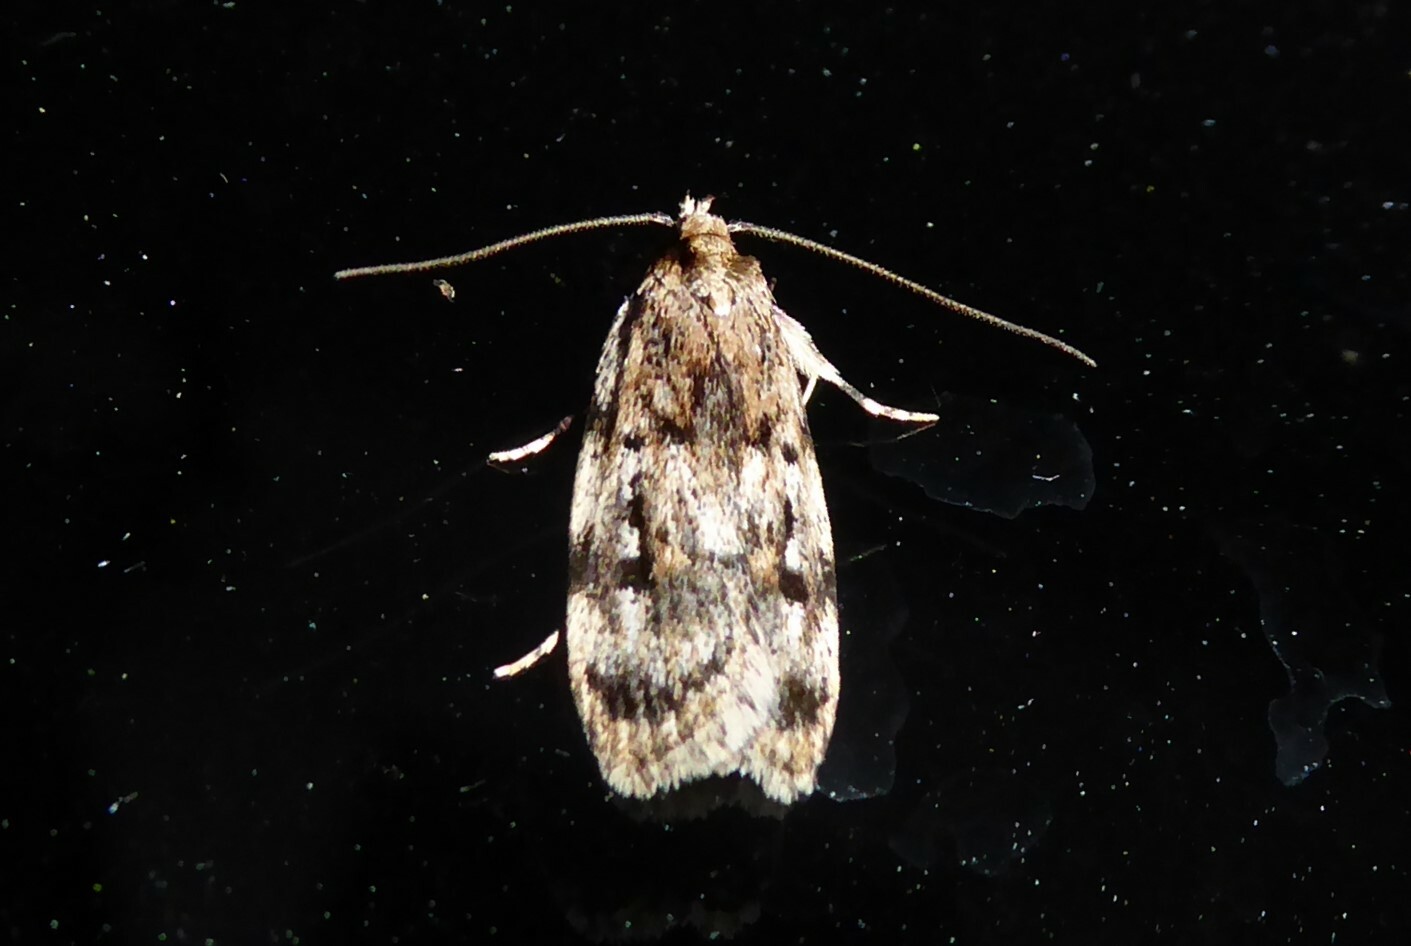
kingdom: Animalia
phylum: Arthropoda
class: Insecta
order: Lepidoptera
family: Oecophoridae
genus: Barea
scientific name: Barea exarcha
